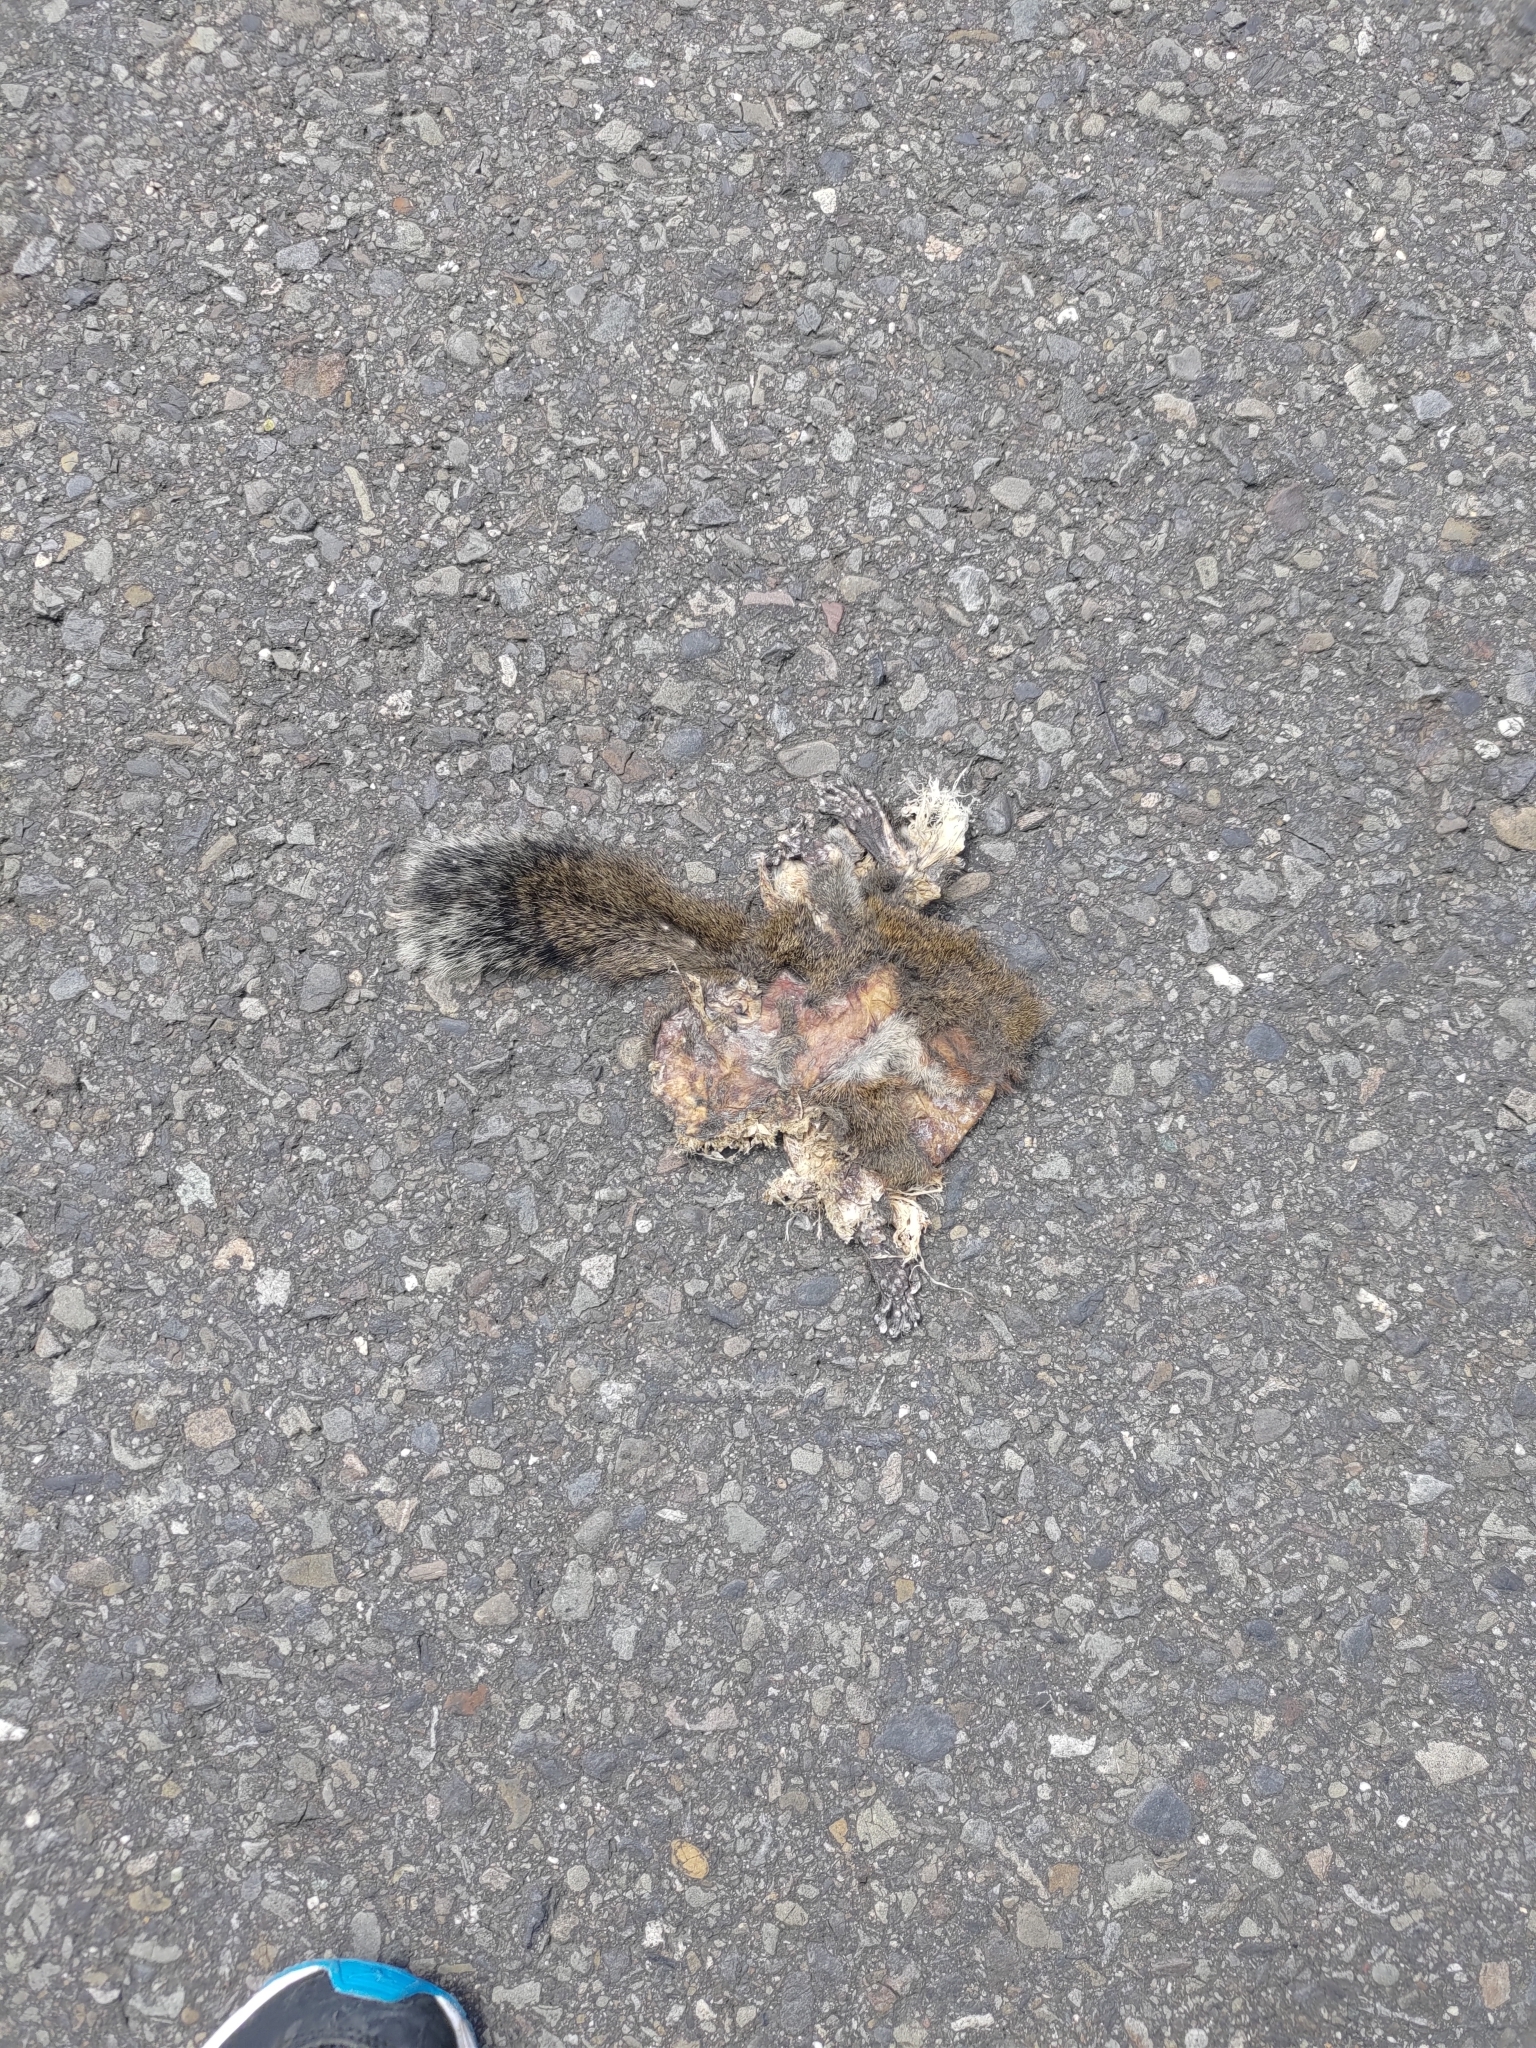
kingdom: Animalia
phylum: Chordata
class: Mammalia
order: Rodentia
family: Sciuridae
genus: Callosciurus
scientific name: Callosciurus erythraeus
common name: Pallas's squirrel
